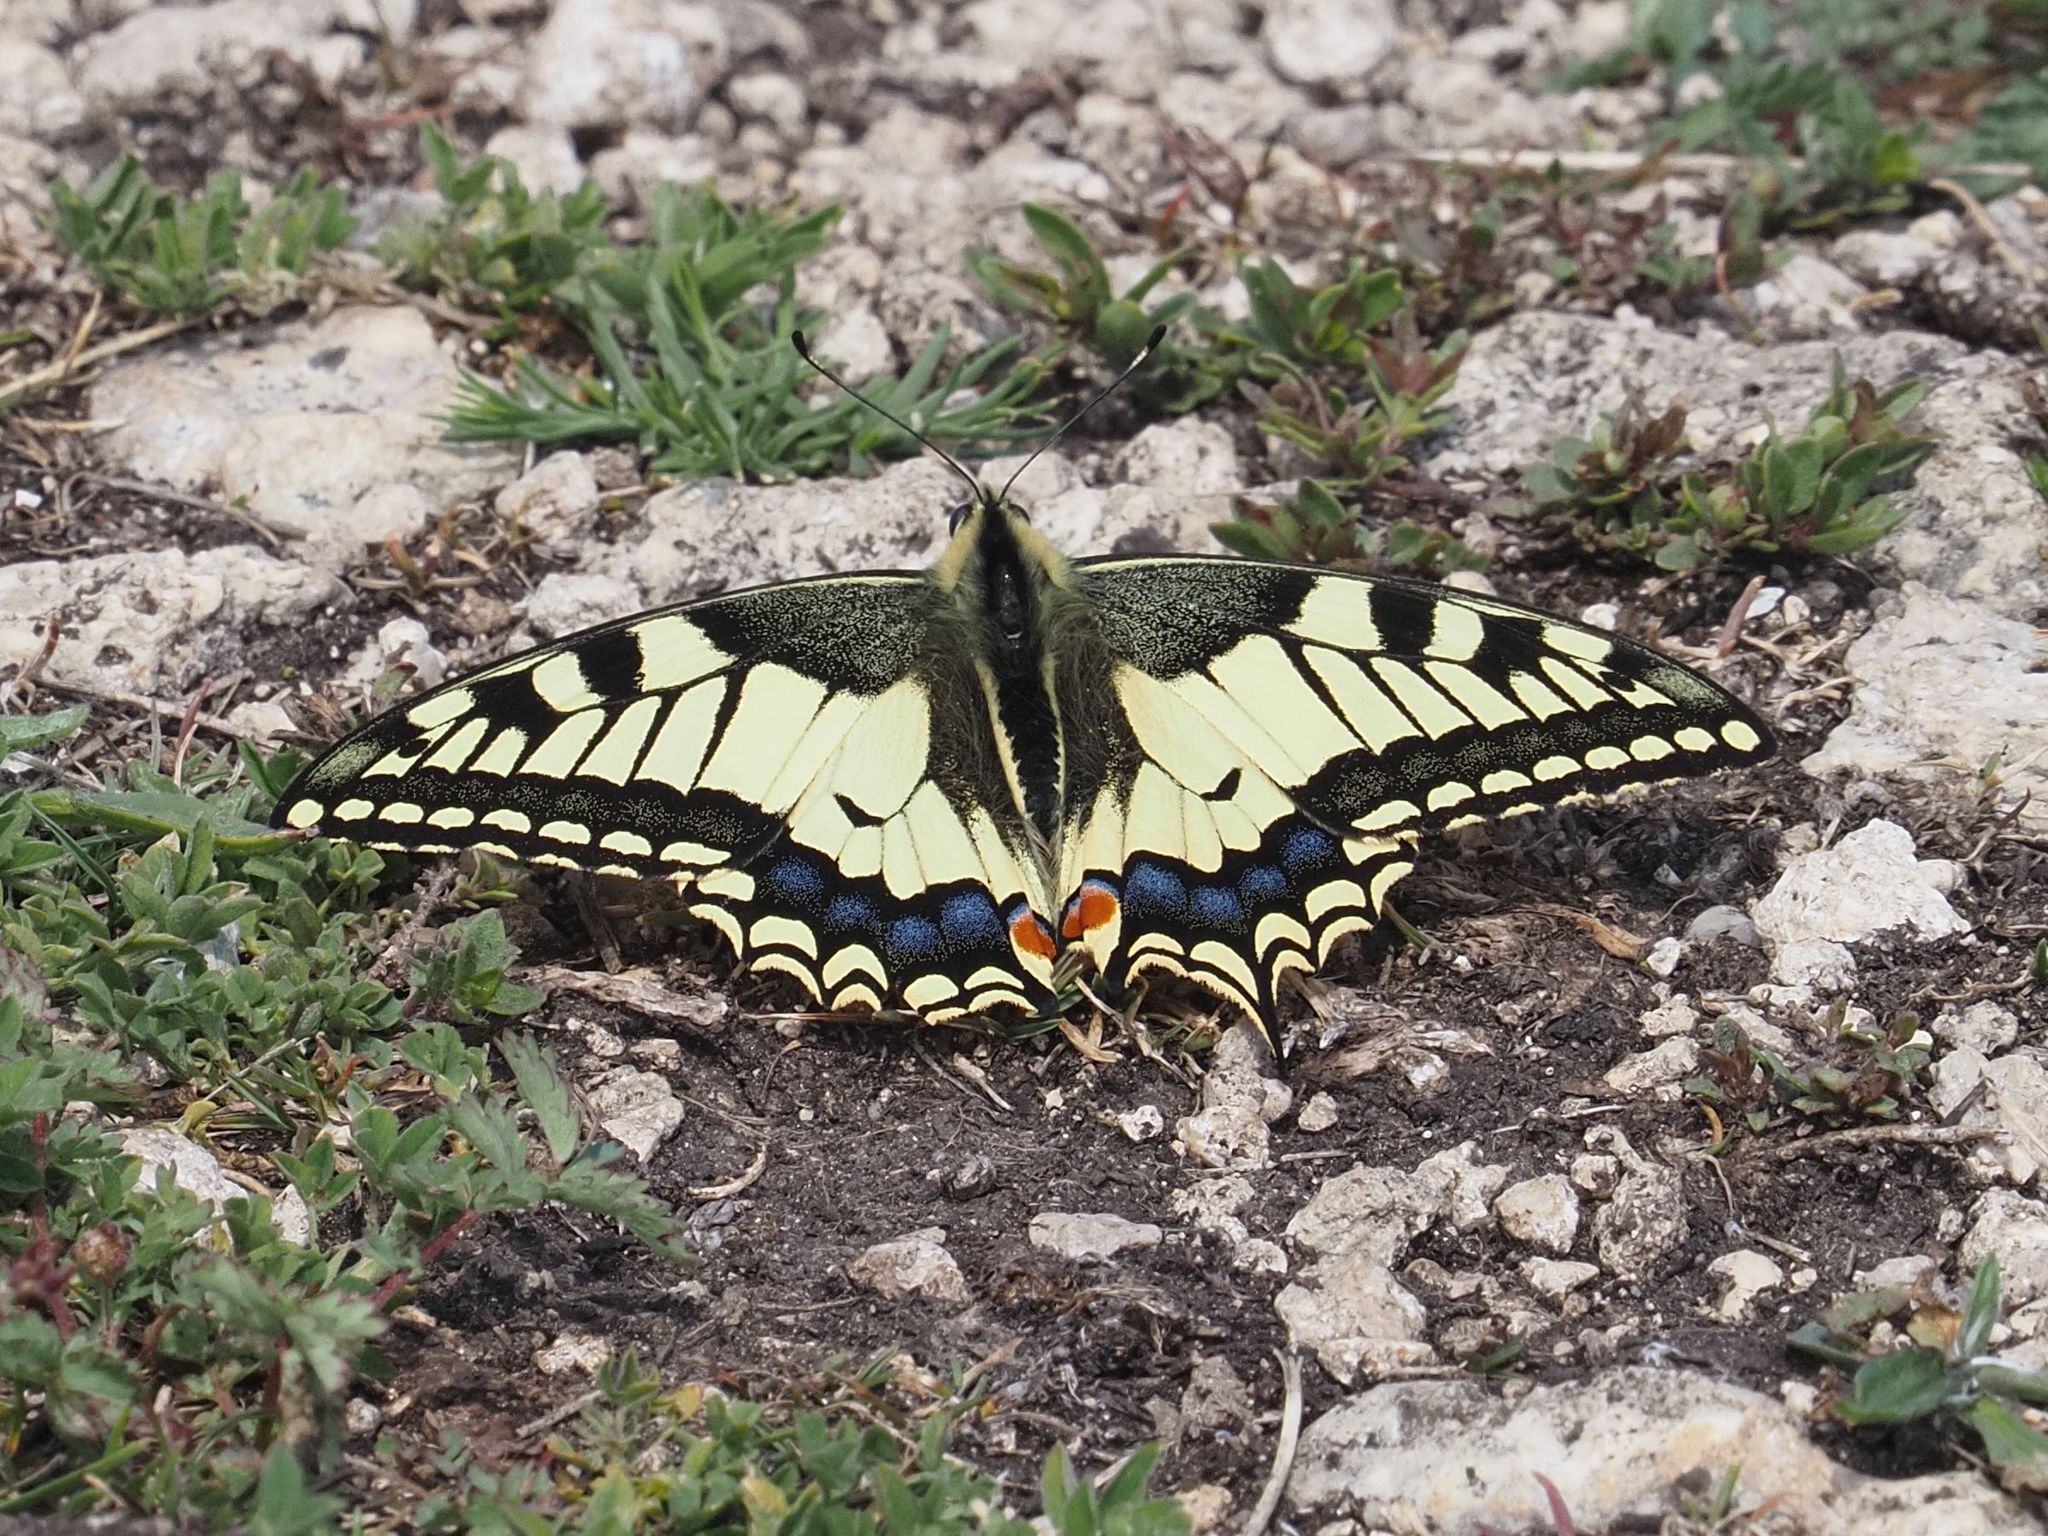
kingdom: Animalia
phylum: Arthropoda
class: Insecta
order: Lepidoptera
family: Papilionidae
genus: Papilio
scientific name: Papilio machaon
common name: Swallowtail
